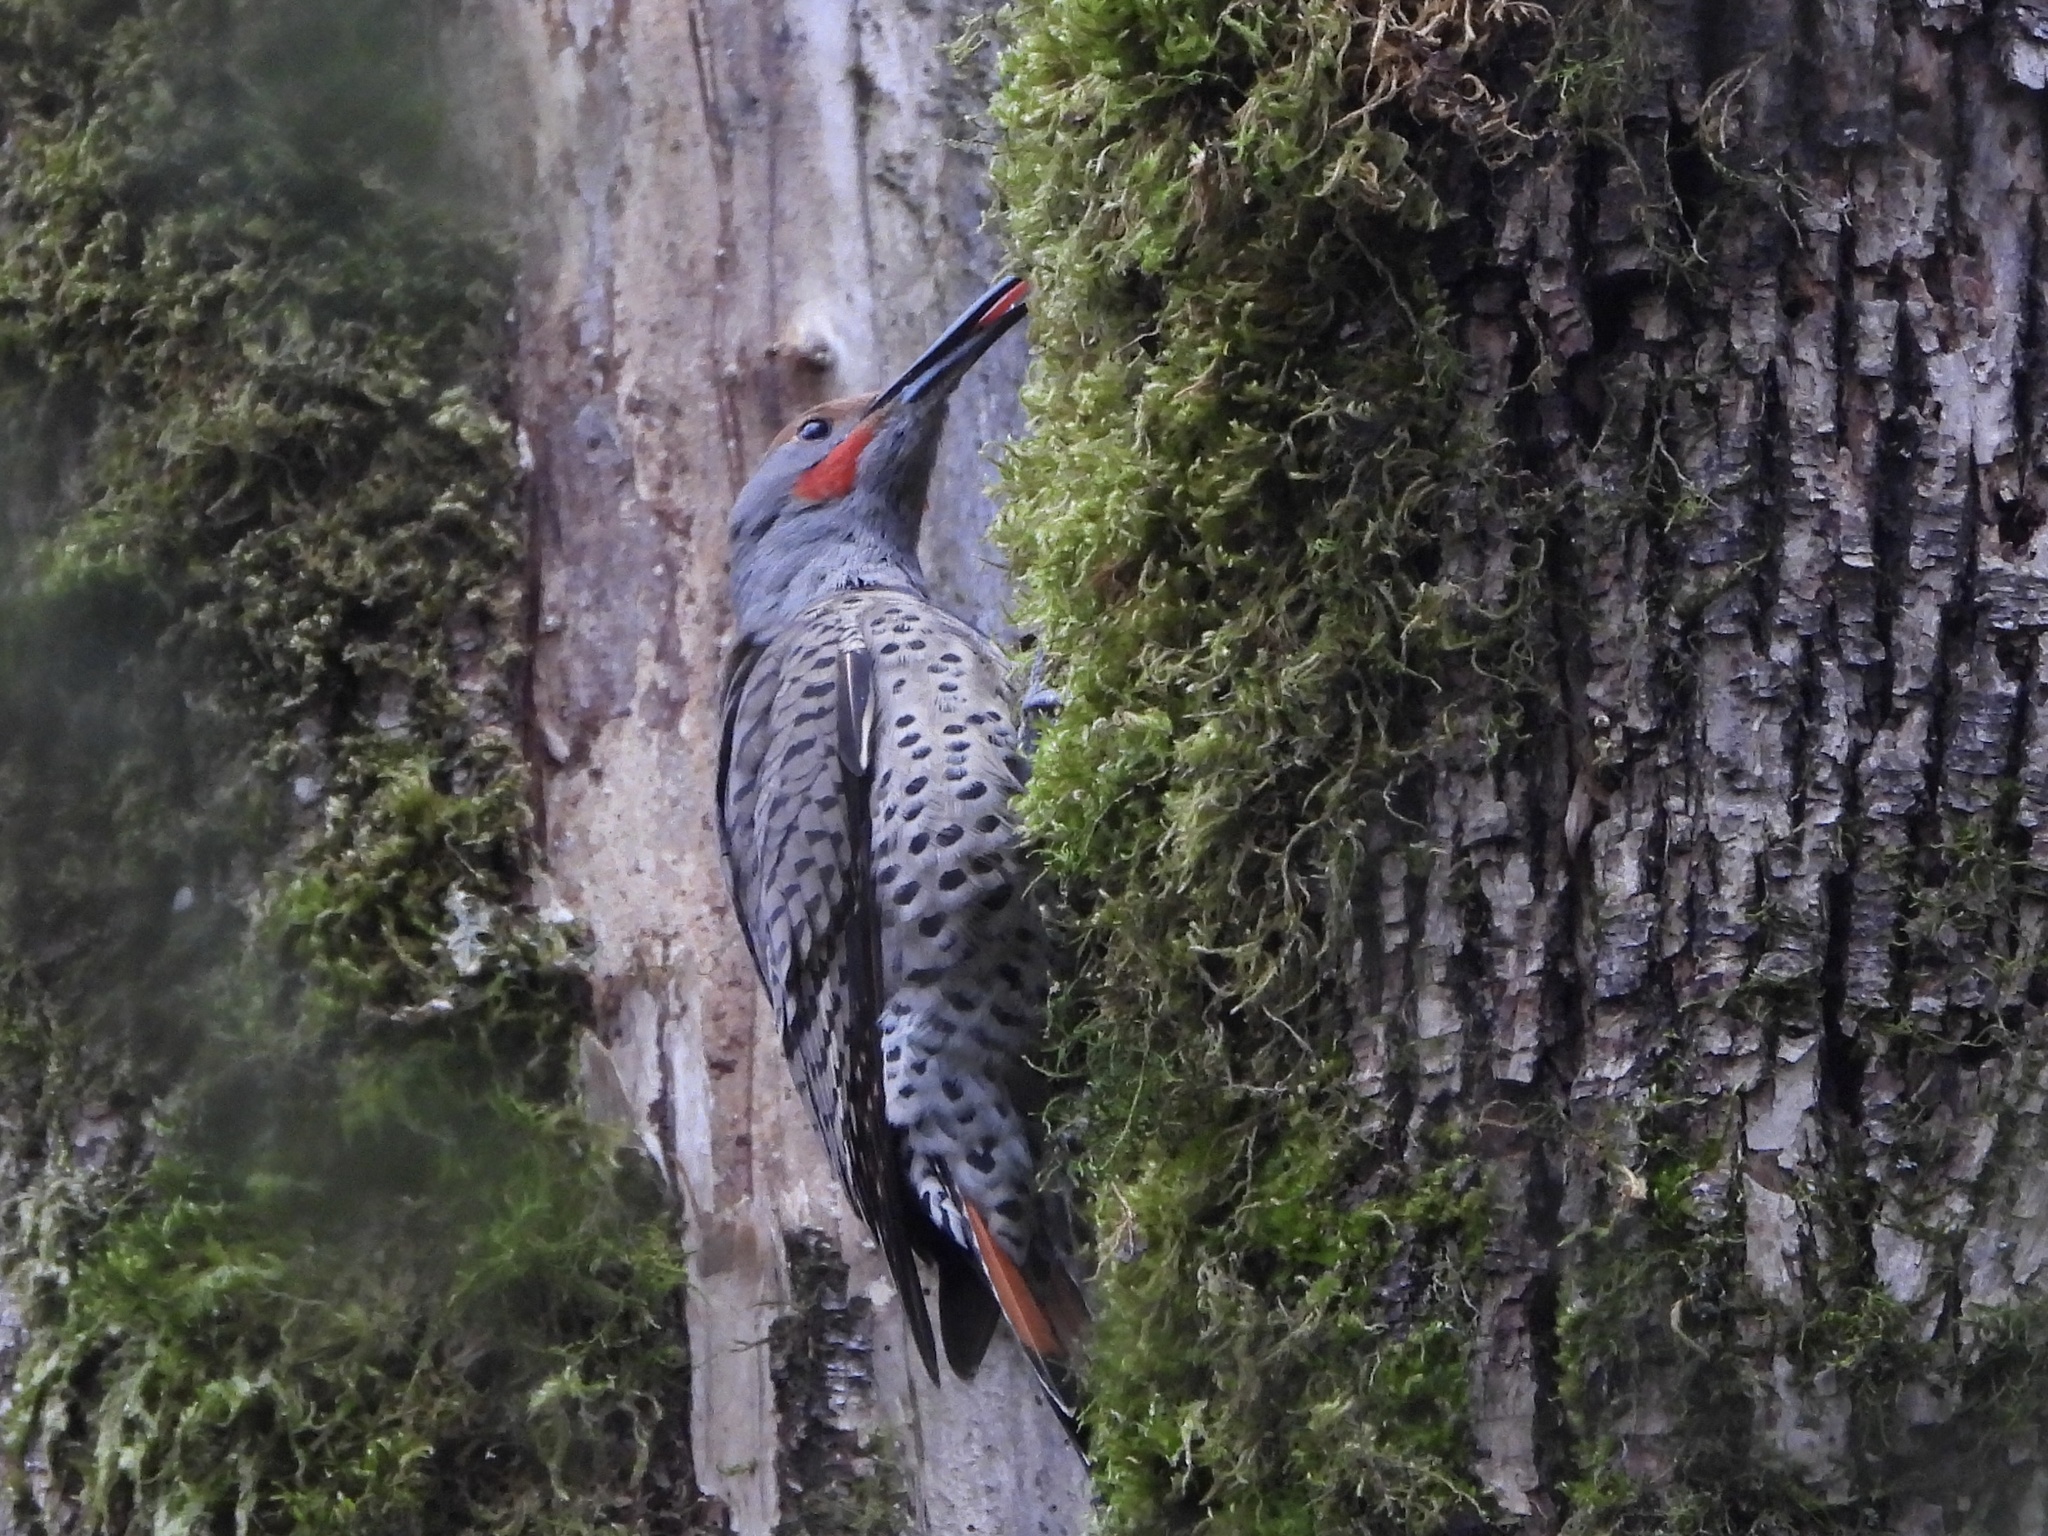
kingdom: Animalia
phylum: Chordata
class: Aves
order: Piciformes
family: Picidae
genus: Colaptes
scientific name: Colaptes auratus
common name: Northern flicker
